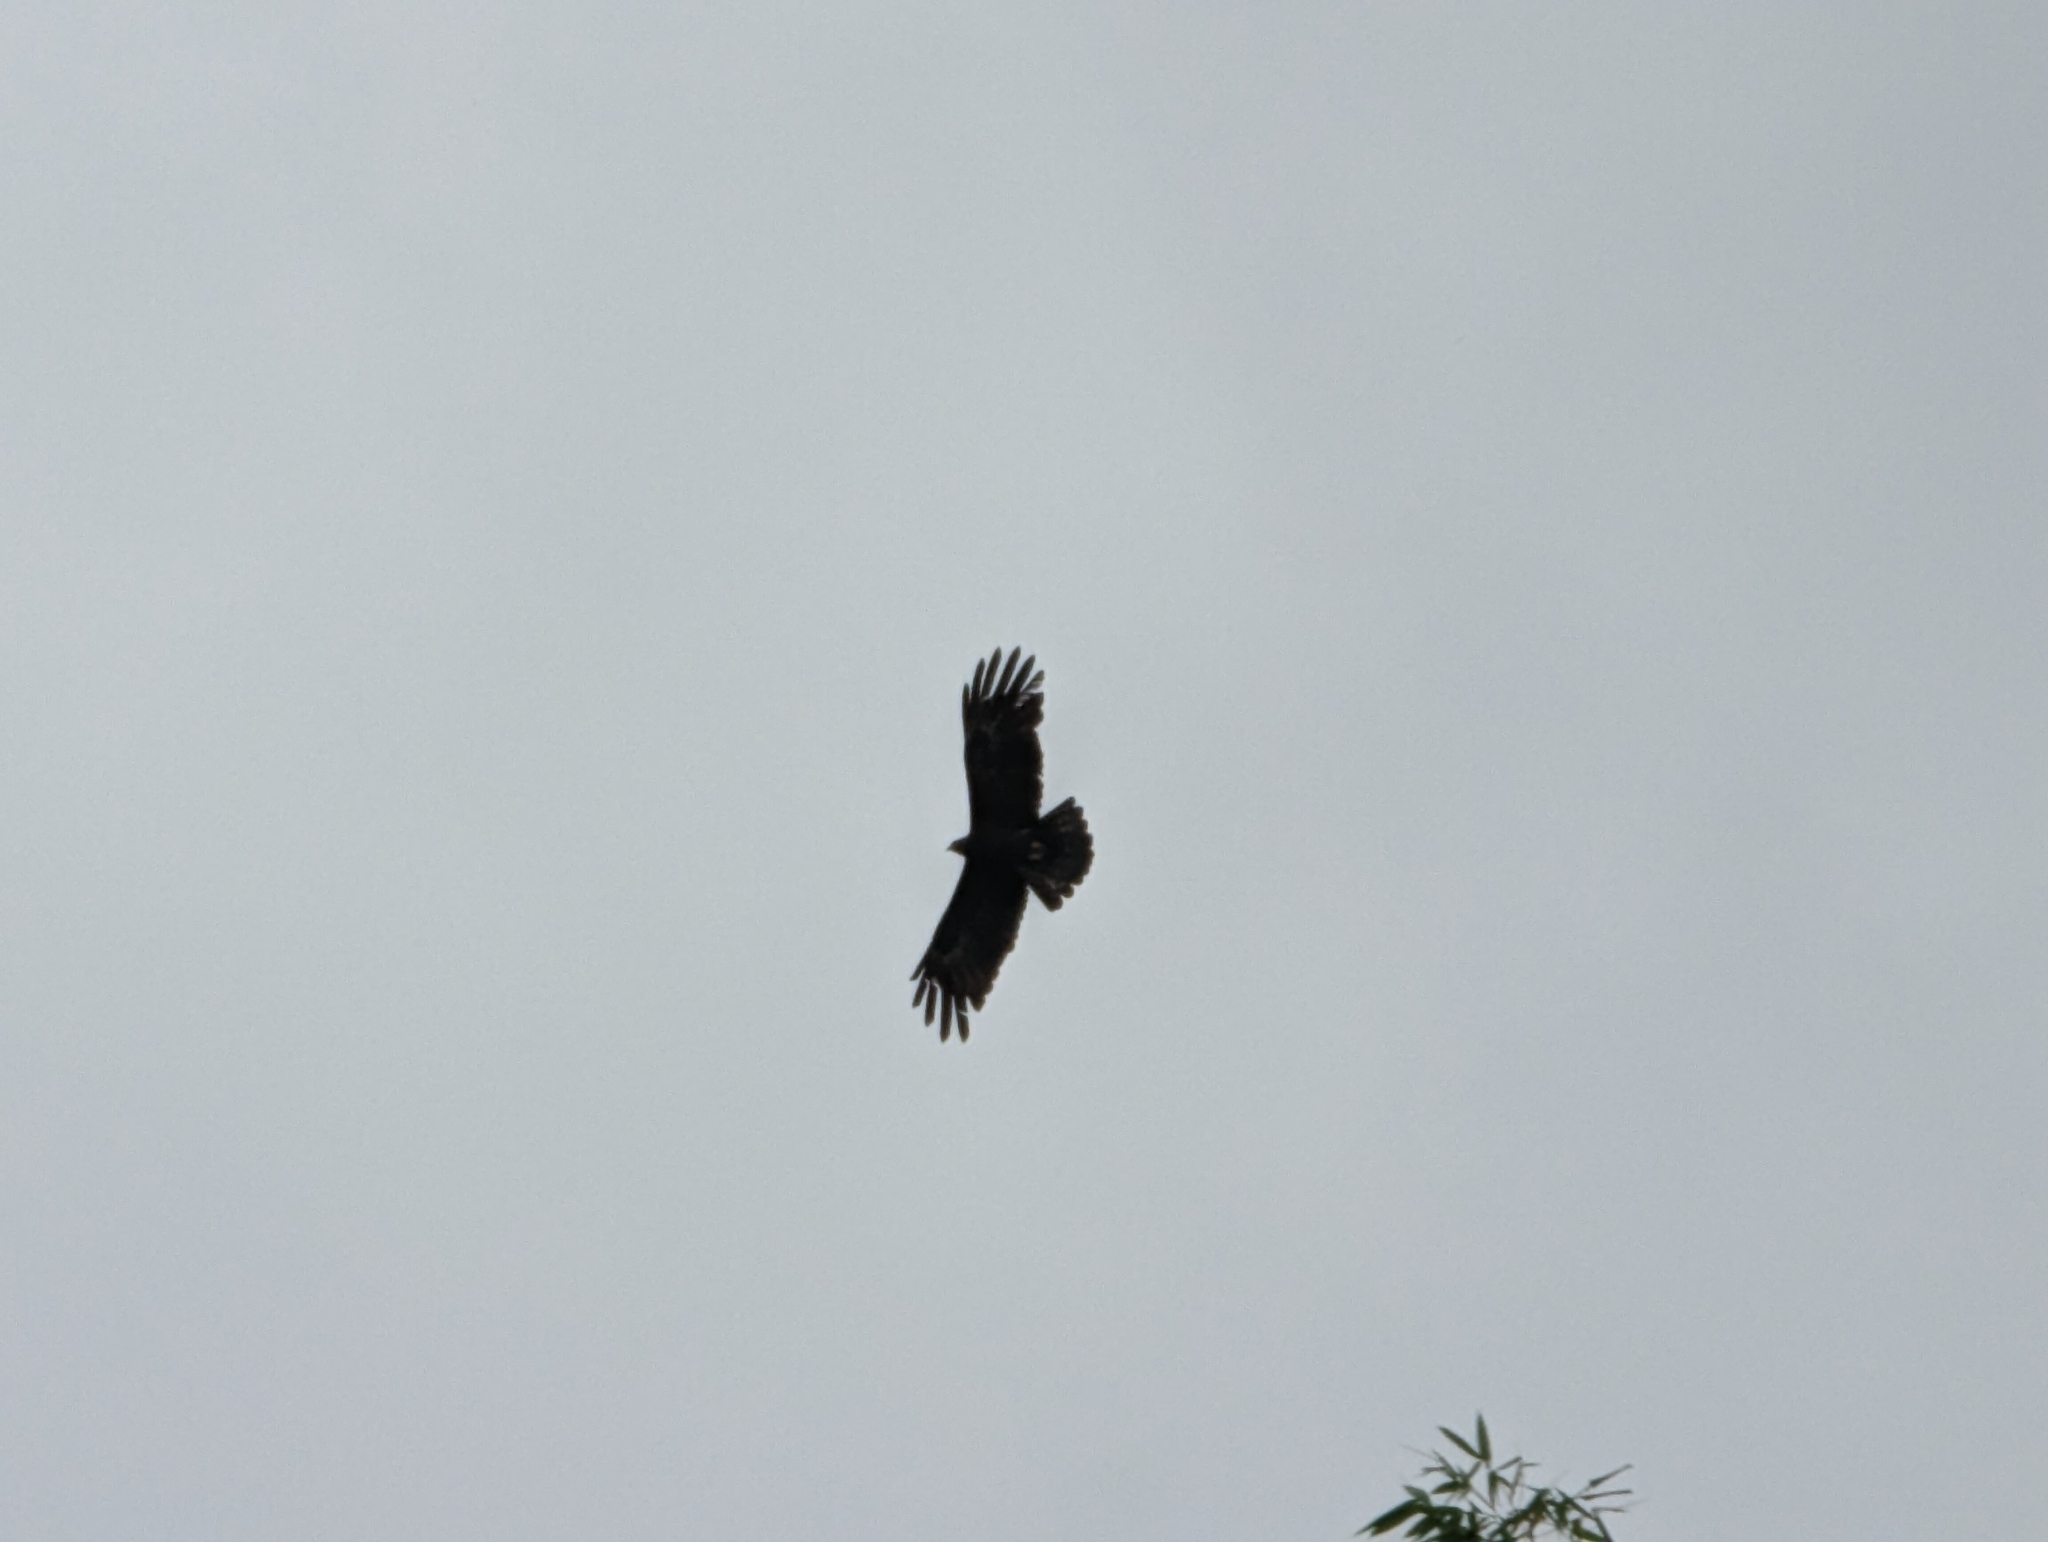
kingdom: Animalia
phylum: Chordata
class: Aves
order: Accipitriformes
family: Accipitridae
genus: Ictinaetus
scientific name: Ictinaetus malayensis
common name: Black eagle
